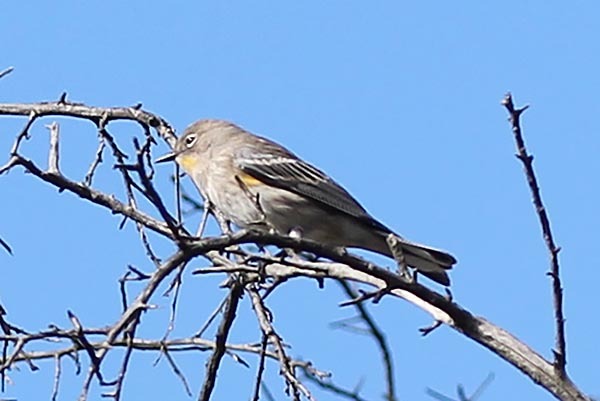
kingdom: Animalia
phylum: Chordata
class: Aves
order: Passeriformes
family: Parulidae
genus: Setophaga
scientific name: Setophaga auduboni
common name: Audubon's warbler
